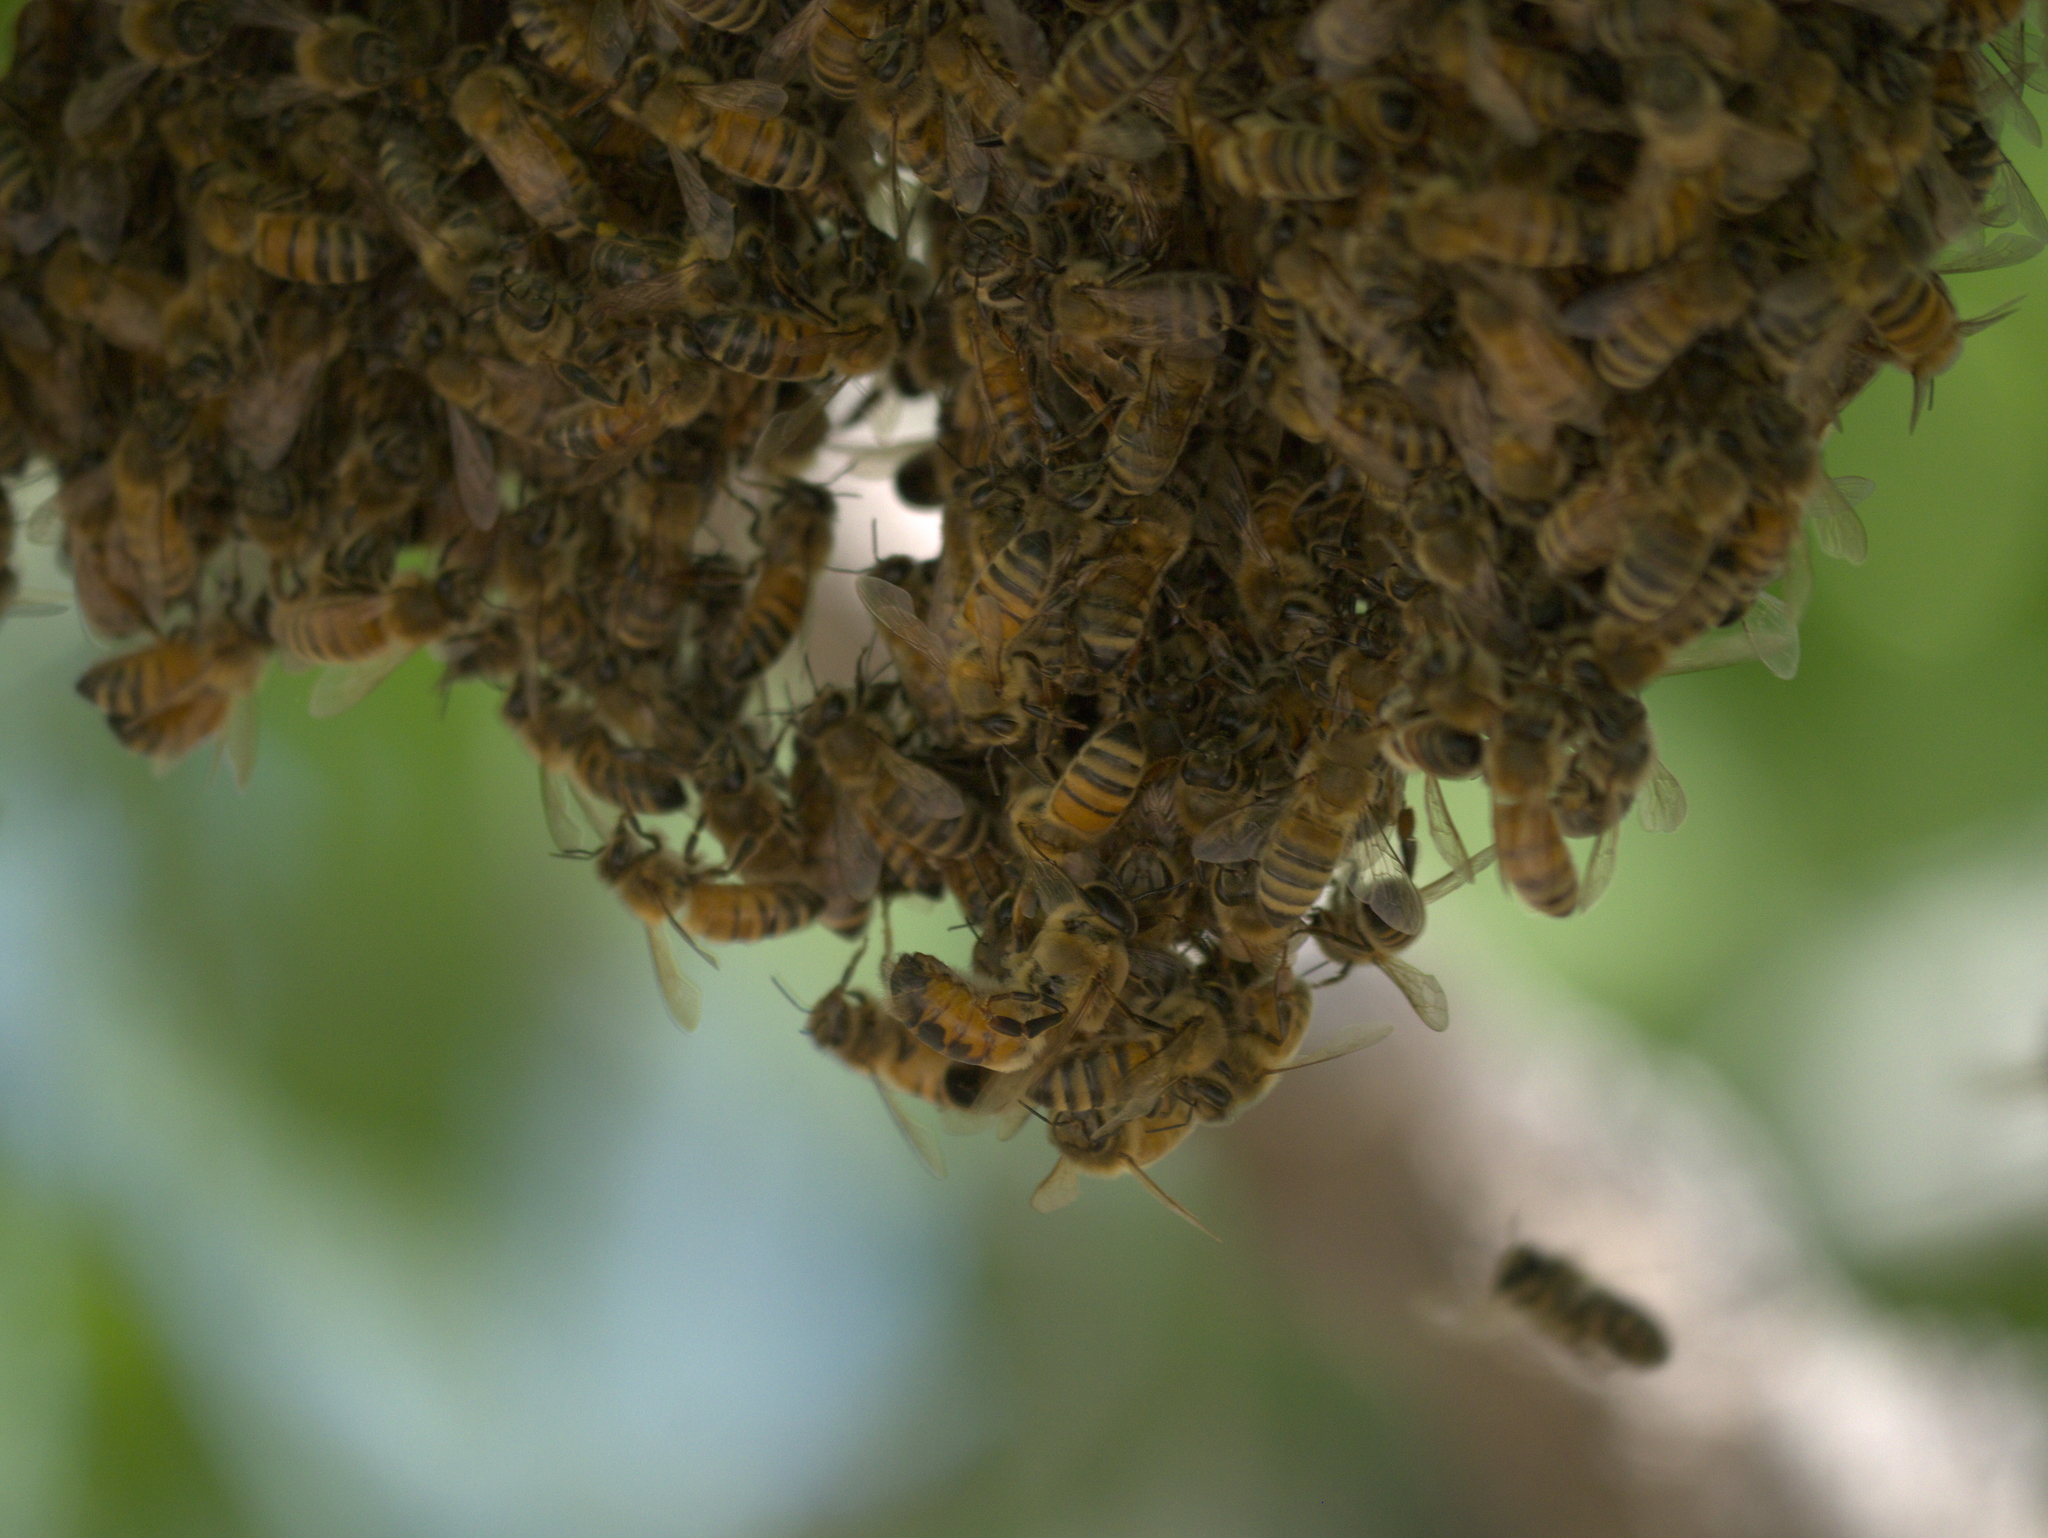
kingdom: Animalia
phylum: Arthropoda
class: Insecta
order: Hymenoptera
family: Apidae
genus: Apis
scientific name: Apis mellifera
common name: Honey bee
